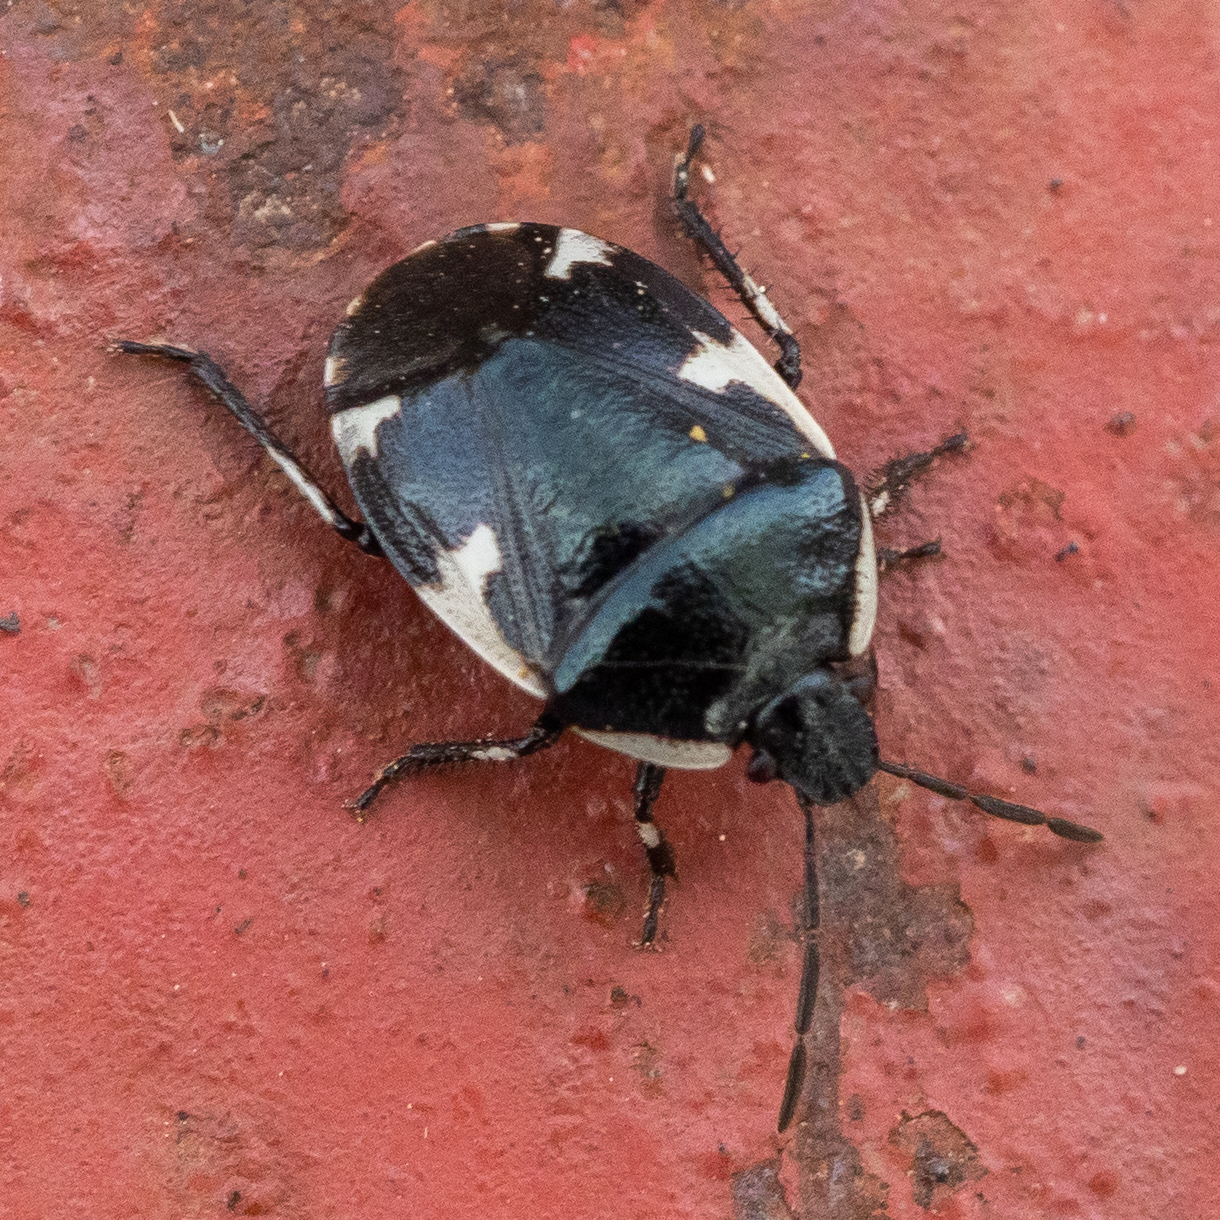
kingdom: Animalia
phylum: Arthropoda
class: Insecta
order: Hemiptera
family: Cydnidae
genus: Tritomegas
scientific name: Tritomegas sexmaculatus
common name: Rambur's pied shieldbug
